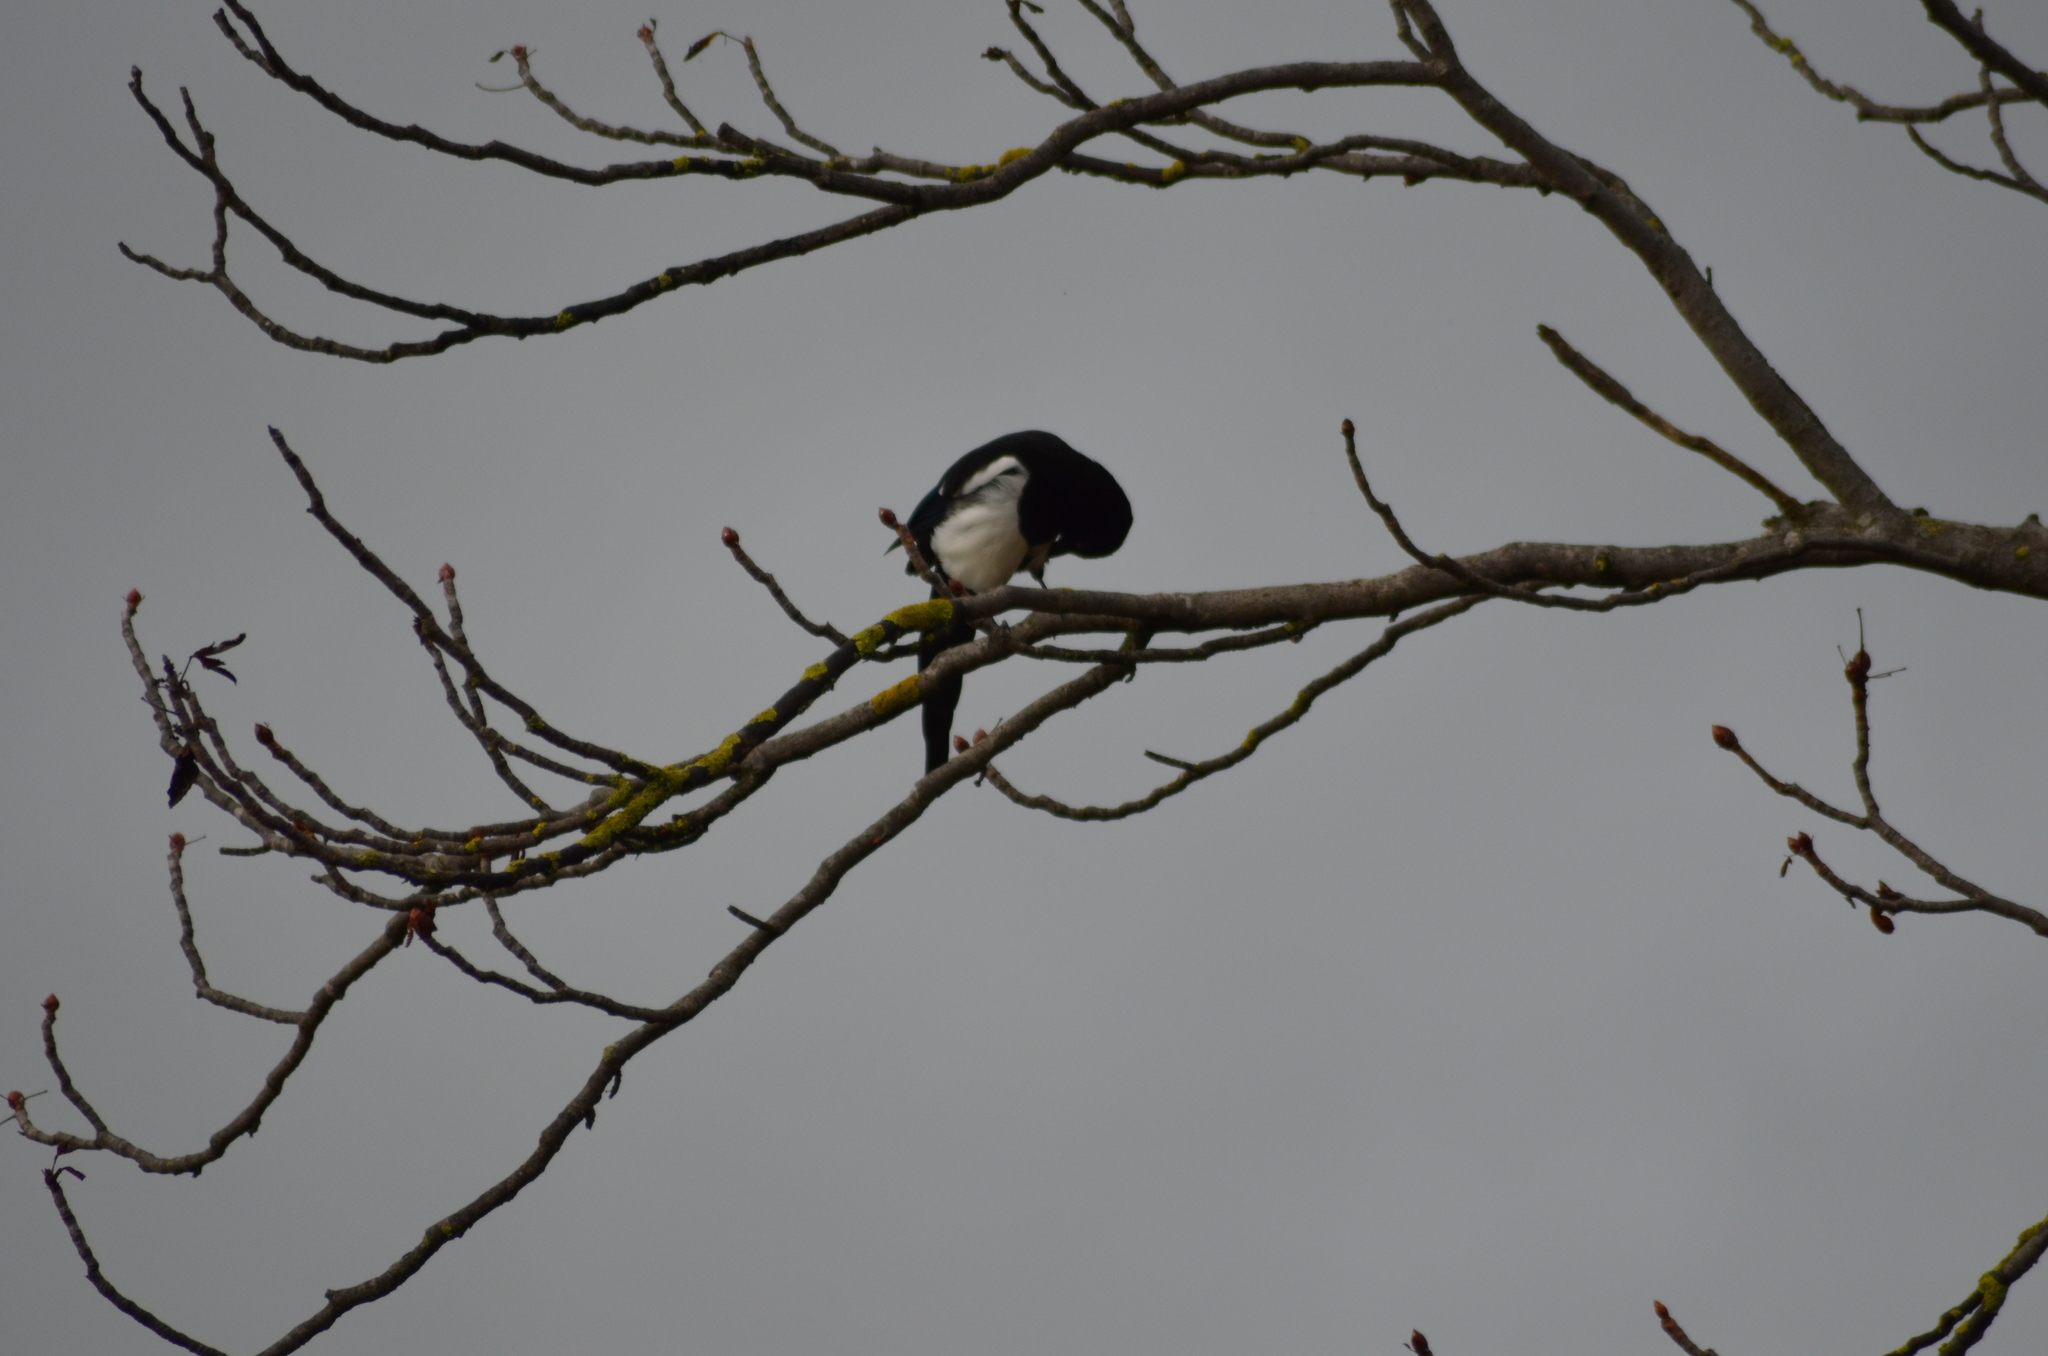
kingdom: Animalia
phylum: Chordata
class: Aves
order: Passeriformes
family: Corvidae
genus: Pica
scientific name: Pica pica
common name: Eurasian magpie
